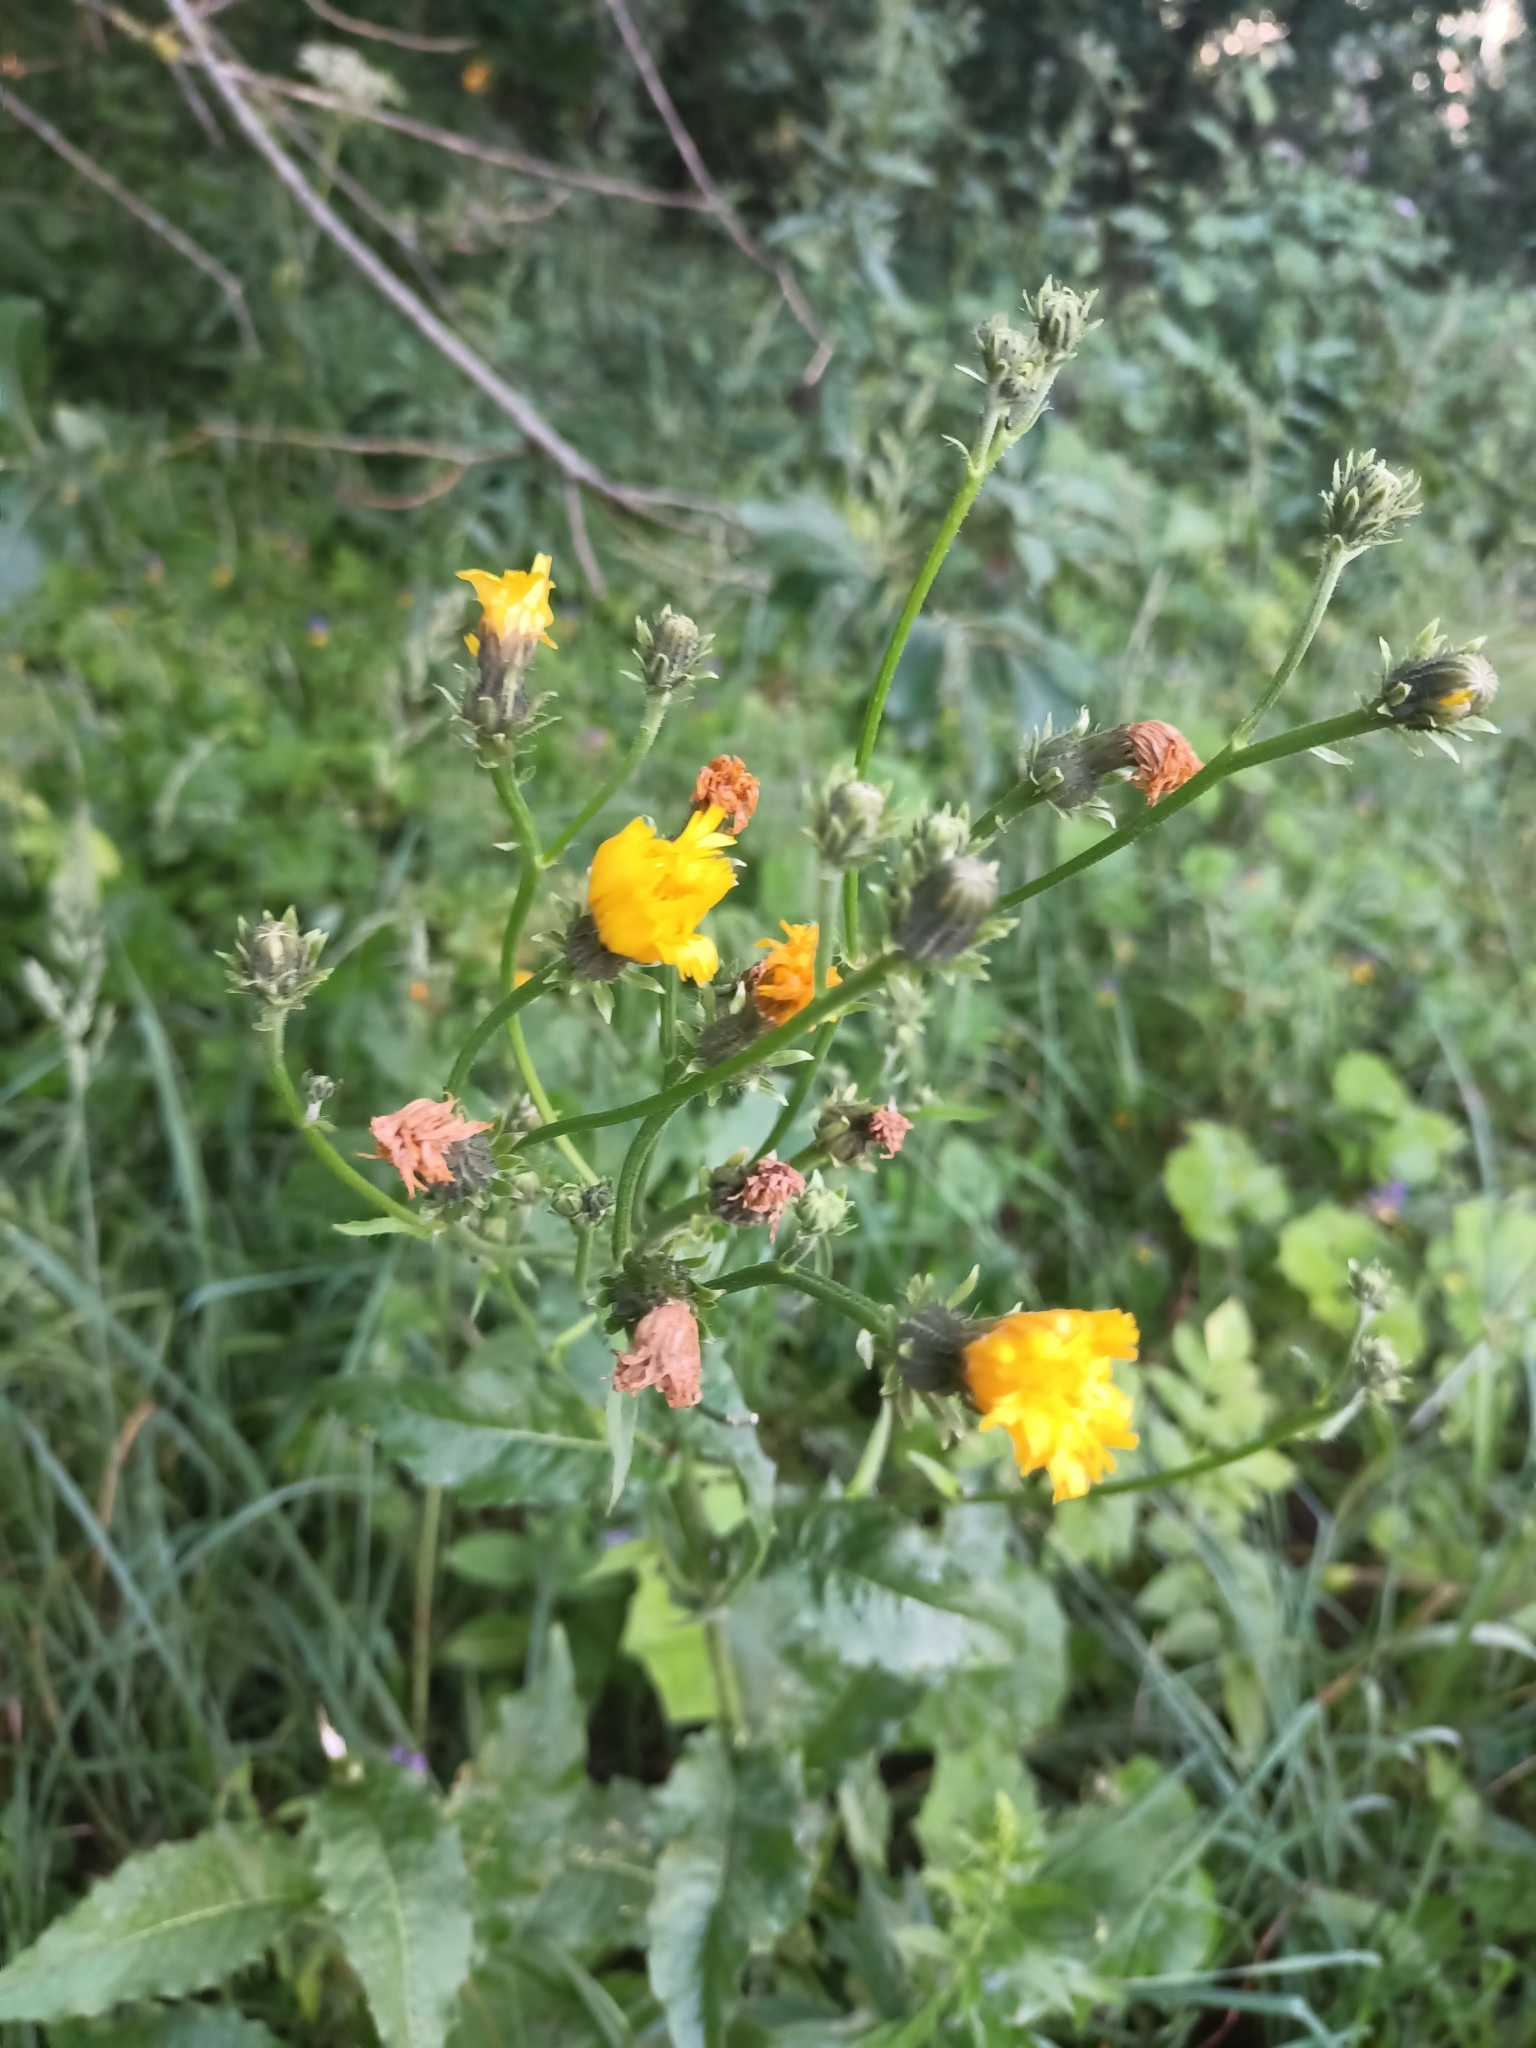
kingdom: Plantae
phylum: Tracheophyta
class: Magnoliopsida
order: Asterales
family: Asteraceae
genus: Picris
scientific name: Picris hieracioides
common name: Hawkweed oxtongue
